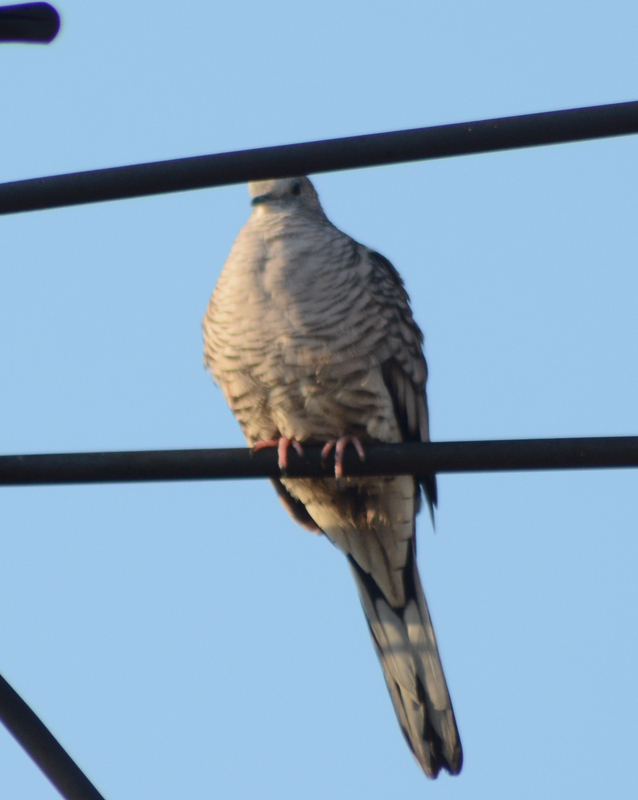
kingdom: Animalia
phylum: Chordata
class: Aves
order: Columbiformes
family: Columbidae
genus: Columbina
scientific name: Columbina inca
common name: Inca dove
